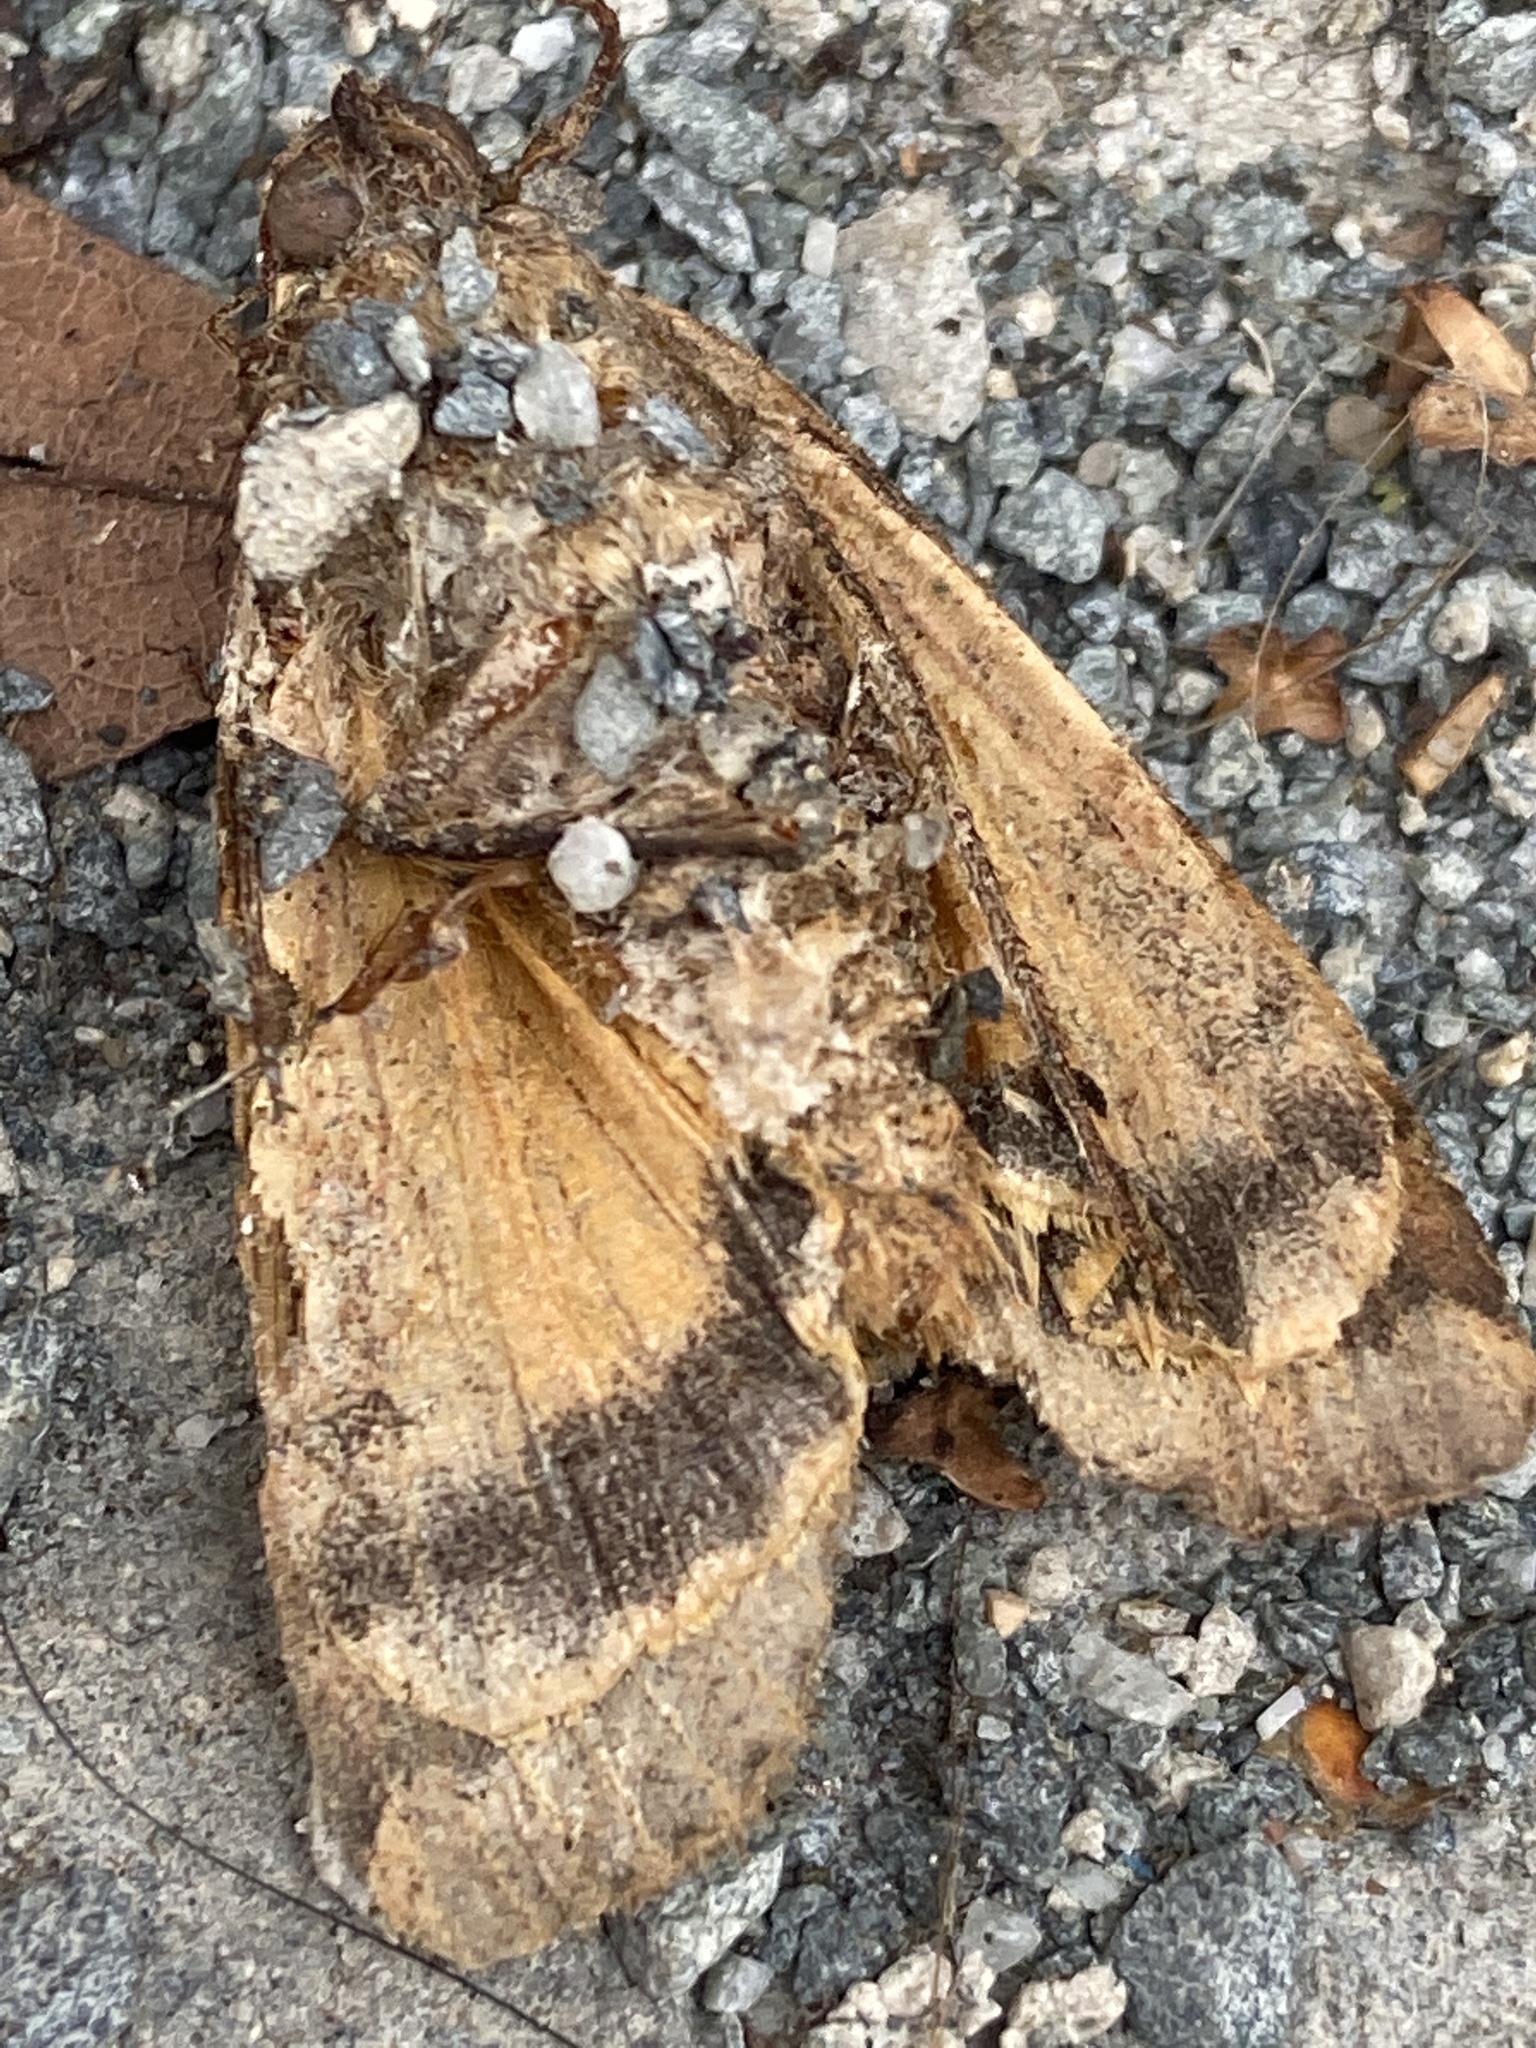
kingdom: Animalia
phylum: Arthropoda
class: Insecta
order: Lepidoptera
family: Noctuidae
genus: Noctua
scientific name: Noctua pronuba
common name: Large yellow underwing
